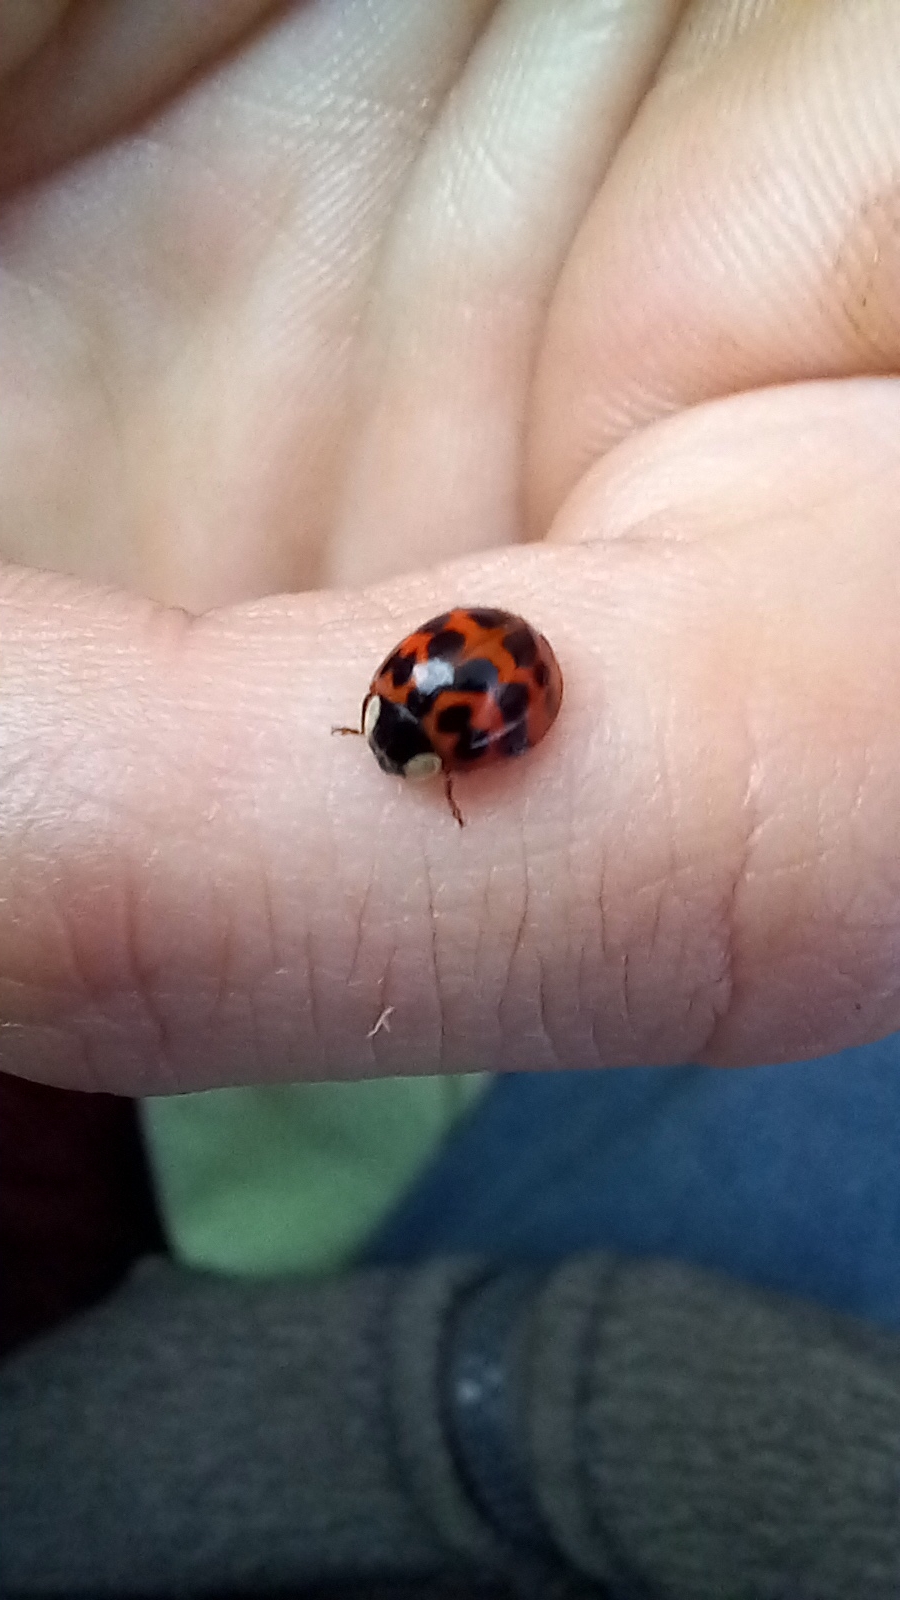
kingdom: Animalia
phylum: Arthropoda
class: Insecta
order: Coleoptera
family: Coccinellidae
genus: Harmonia
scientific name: Harmonia axyridis
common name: Harlequin ladybird
